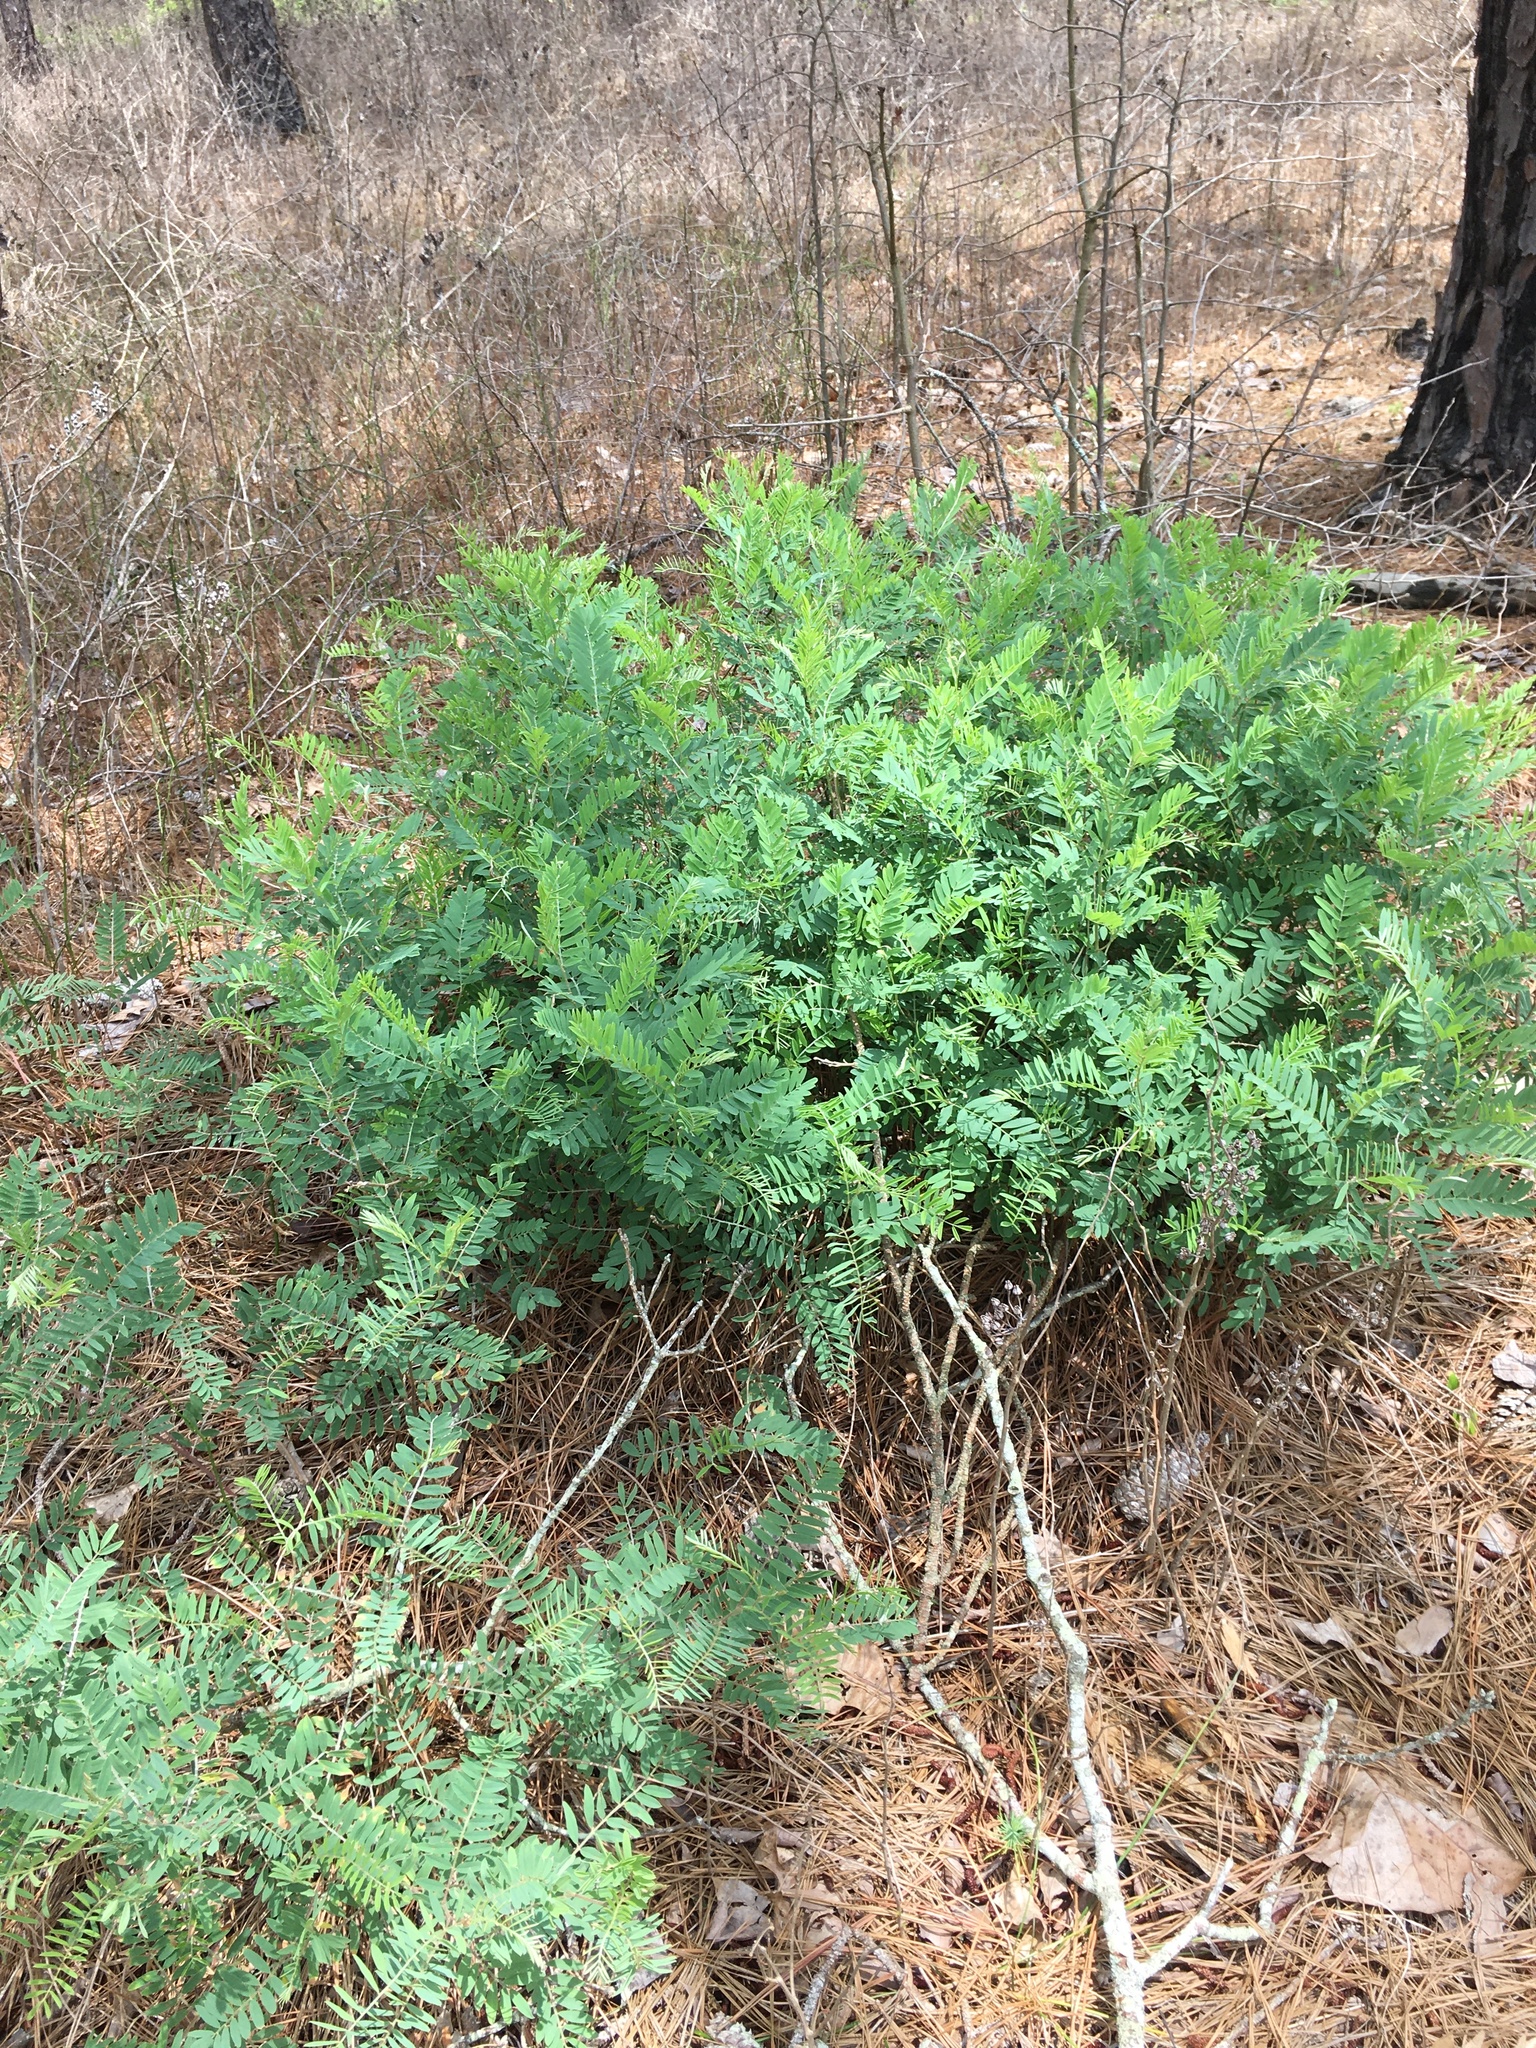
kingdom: Plantae
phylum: Tracheophyta
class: Magnoliopsida
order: Fabales
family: Fabaceae
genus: Tephrosia
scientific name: Tephrosia virginiana
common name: Rabbit-pea
